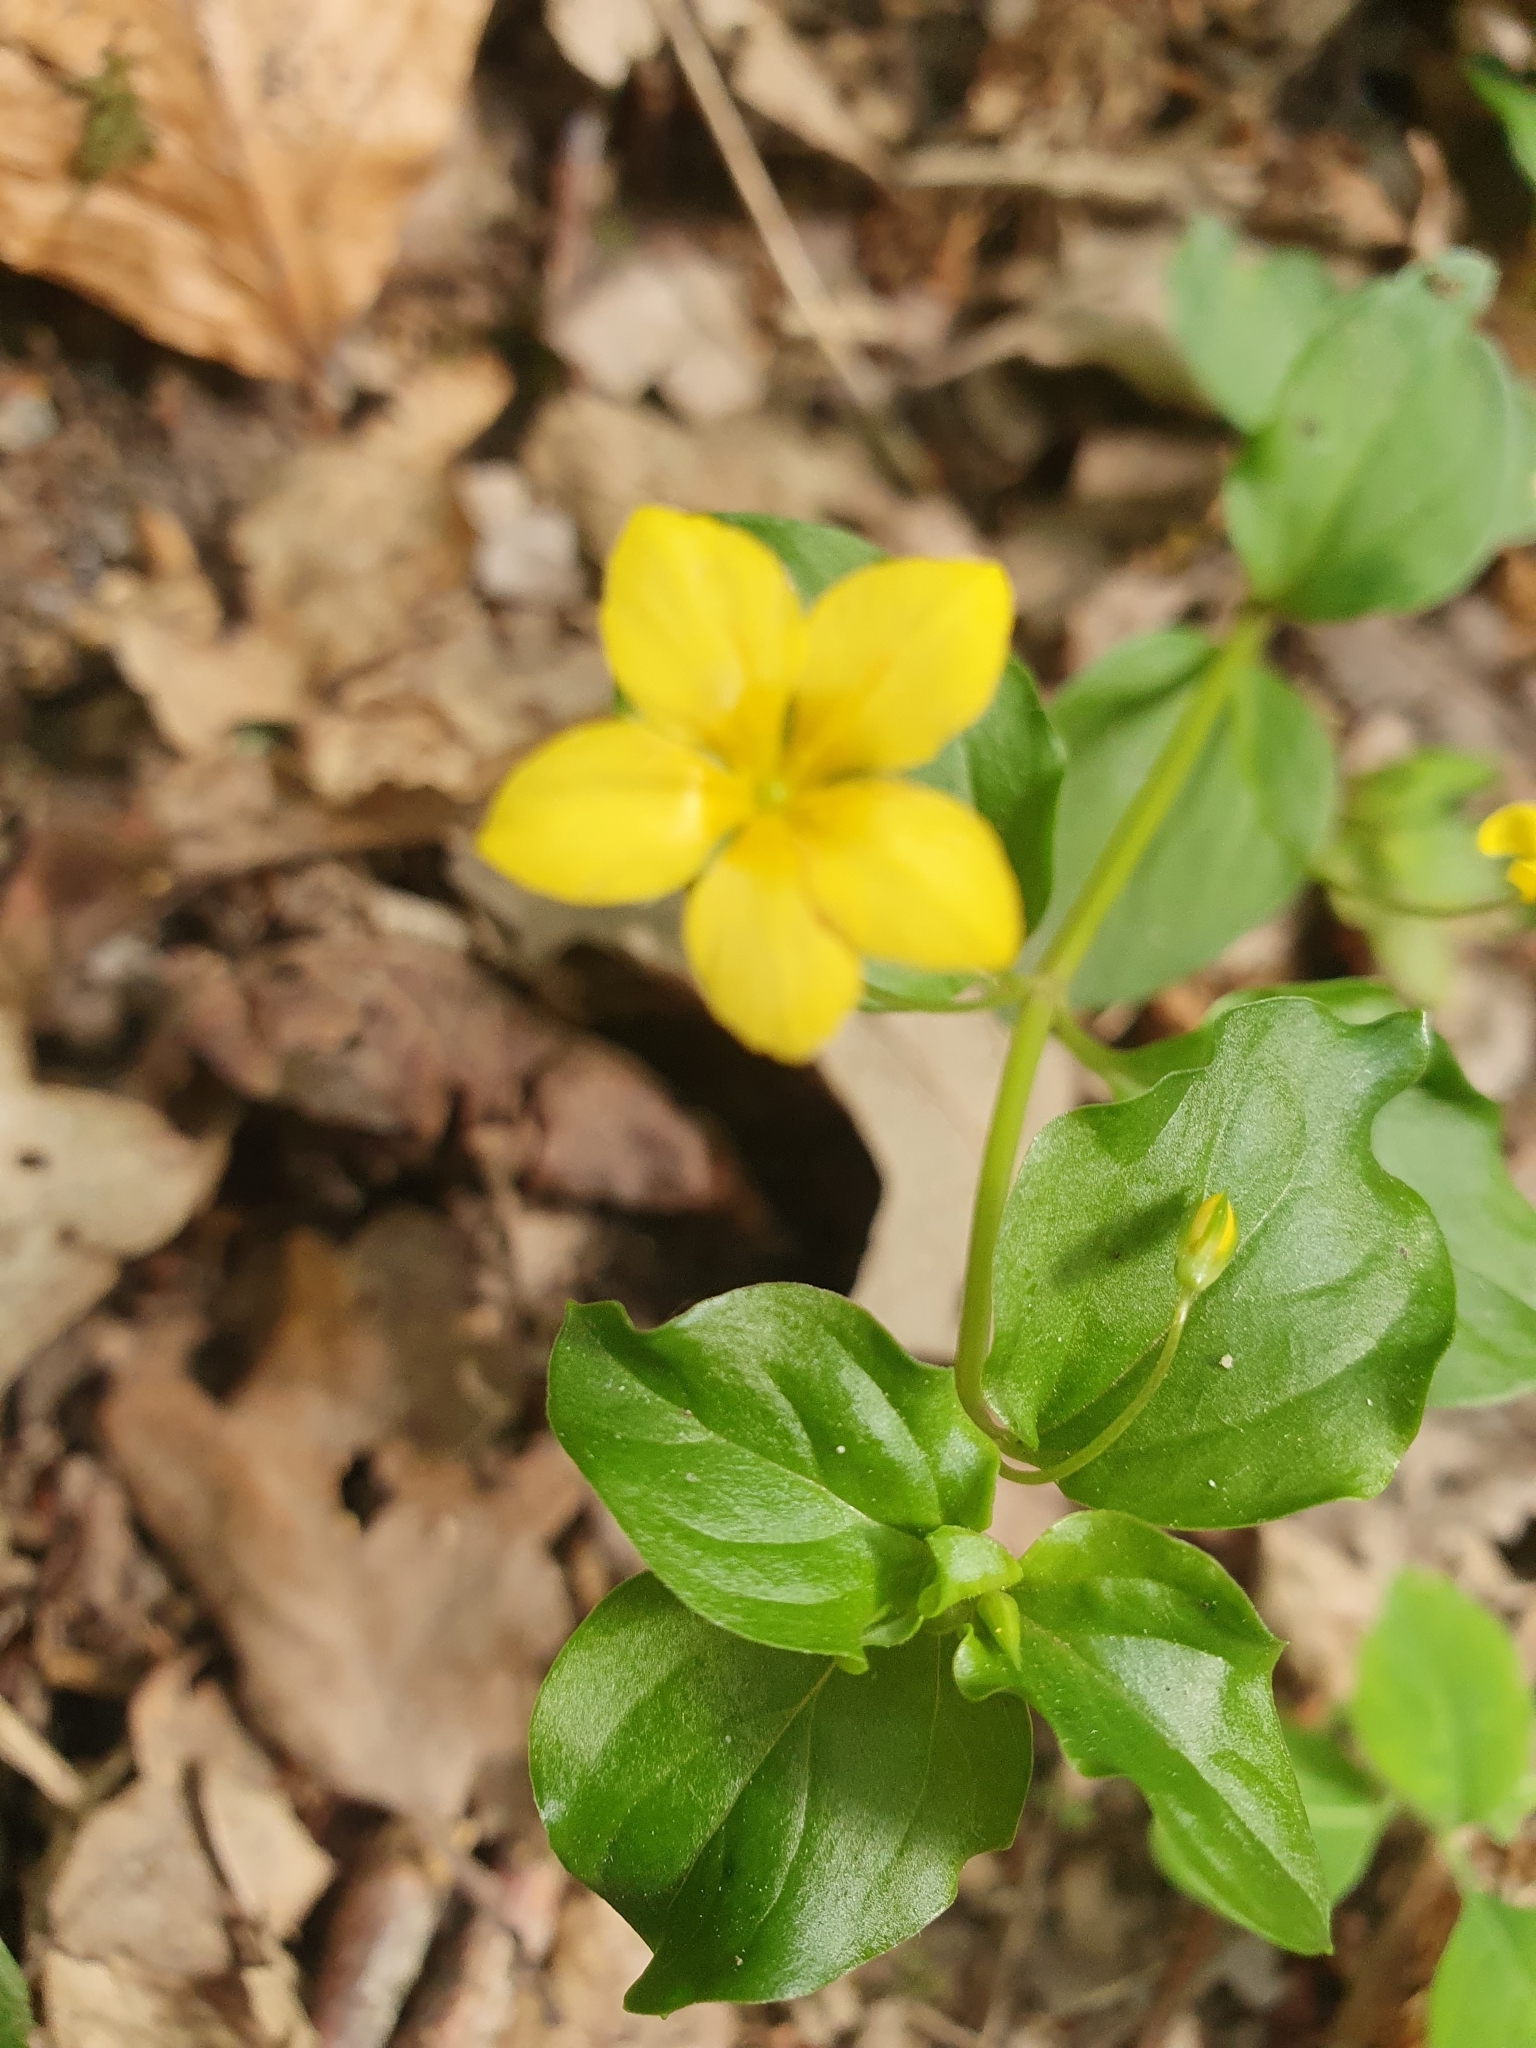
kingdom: Plantae
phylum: Tracheophyta
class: Magnoliopsida
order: Ericales
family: Primulaceae
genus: Lysimachia
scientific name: Lysimachia nemorum
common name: Yellow pimpernel
